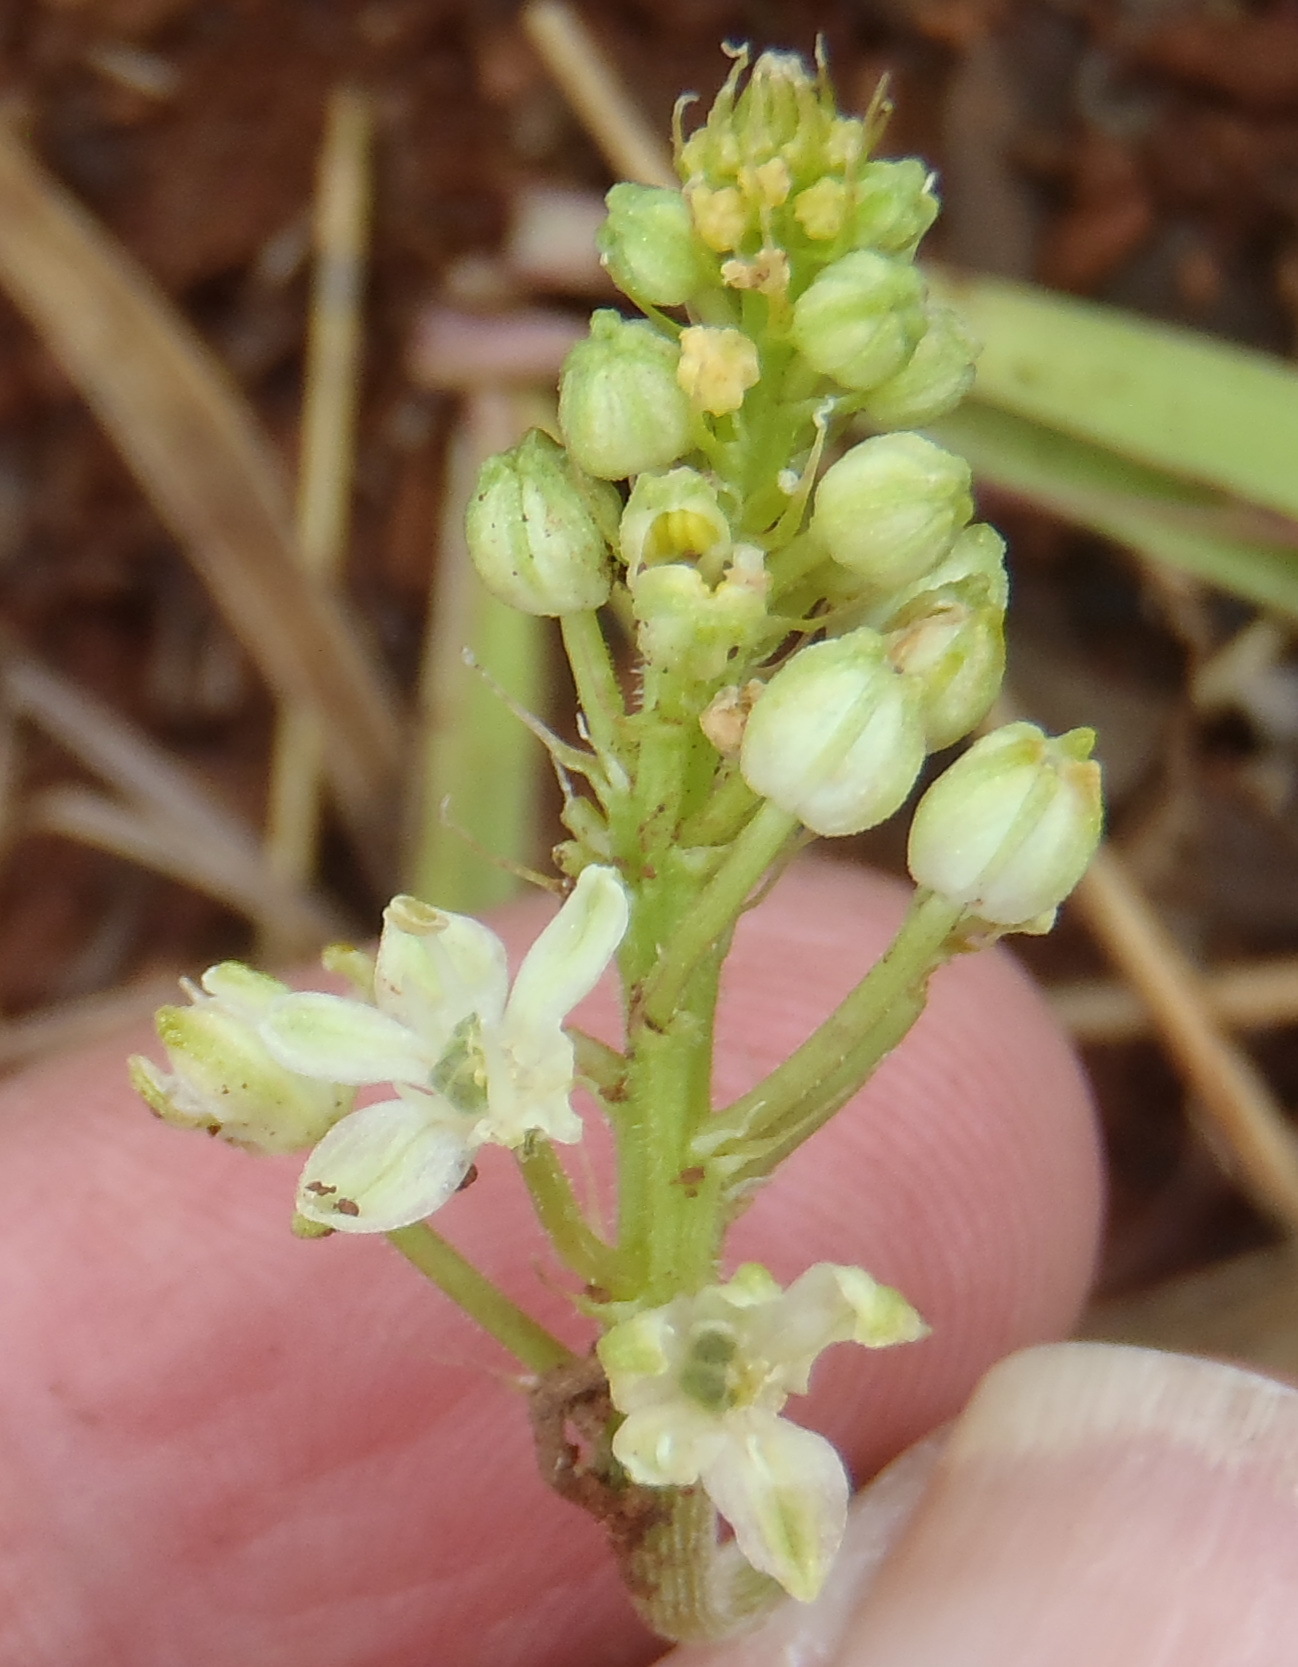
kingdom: Plantae
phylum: Tracheophyta
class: Liliopsida
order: Asparagales
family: Asparagaceae
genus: Schizocarphus
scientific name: Schizocarphus nervosus
